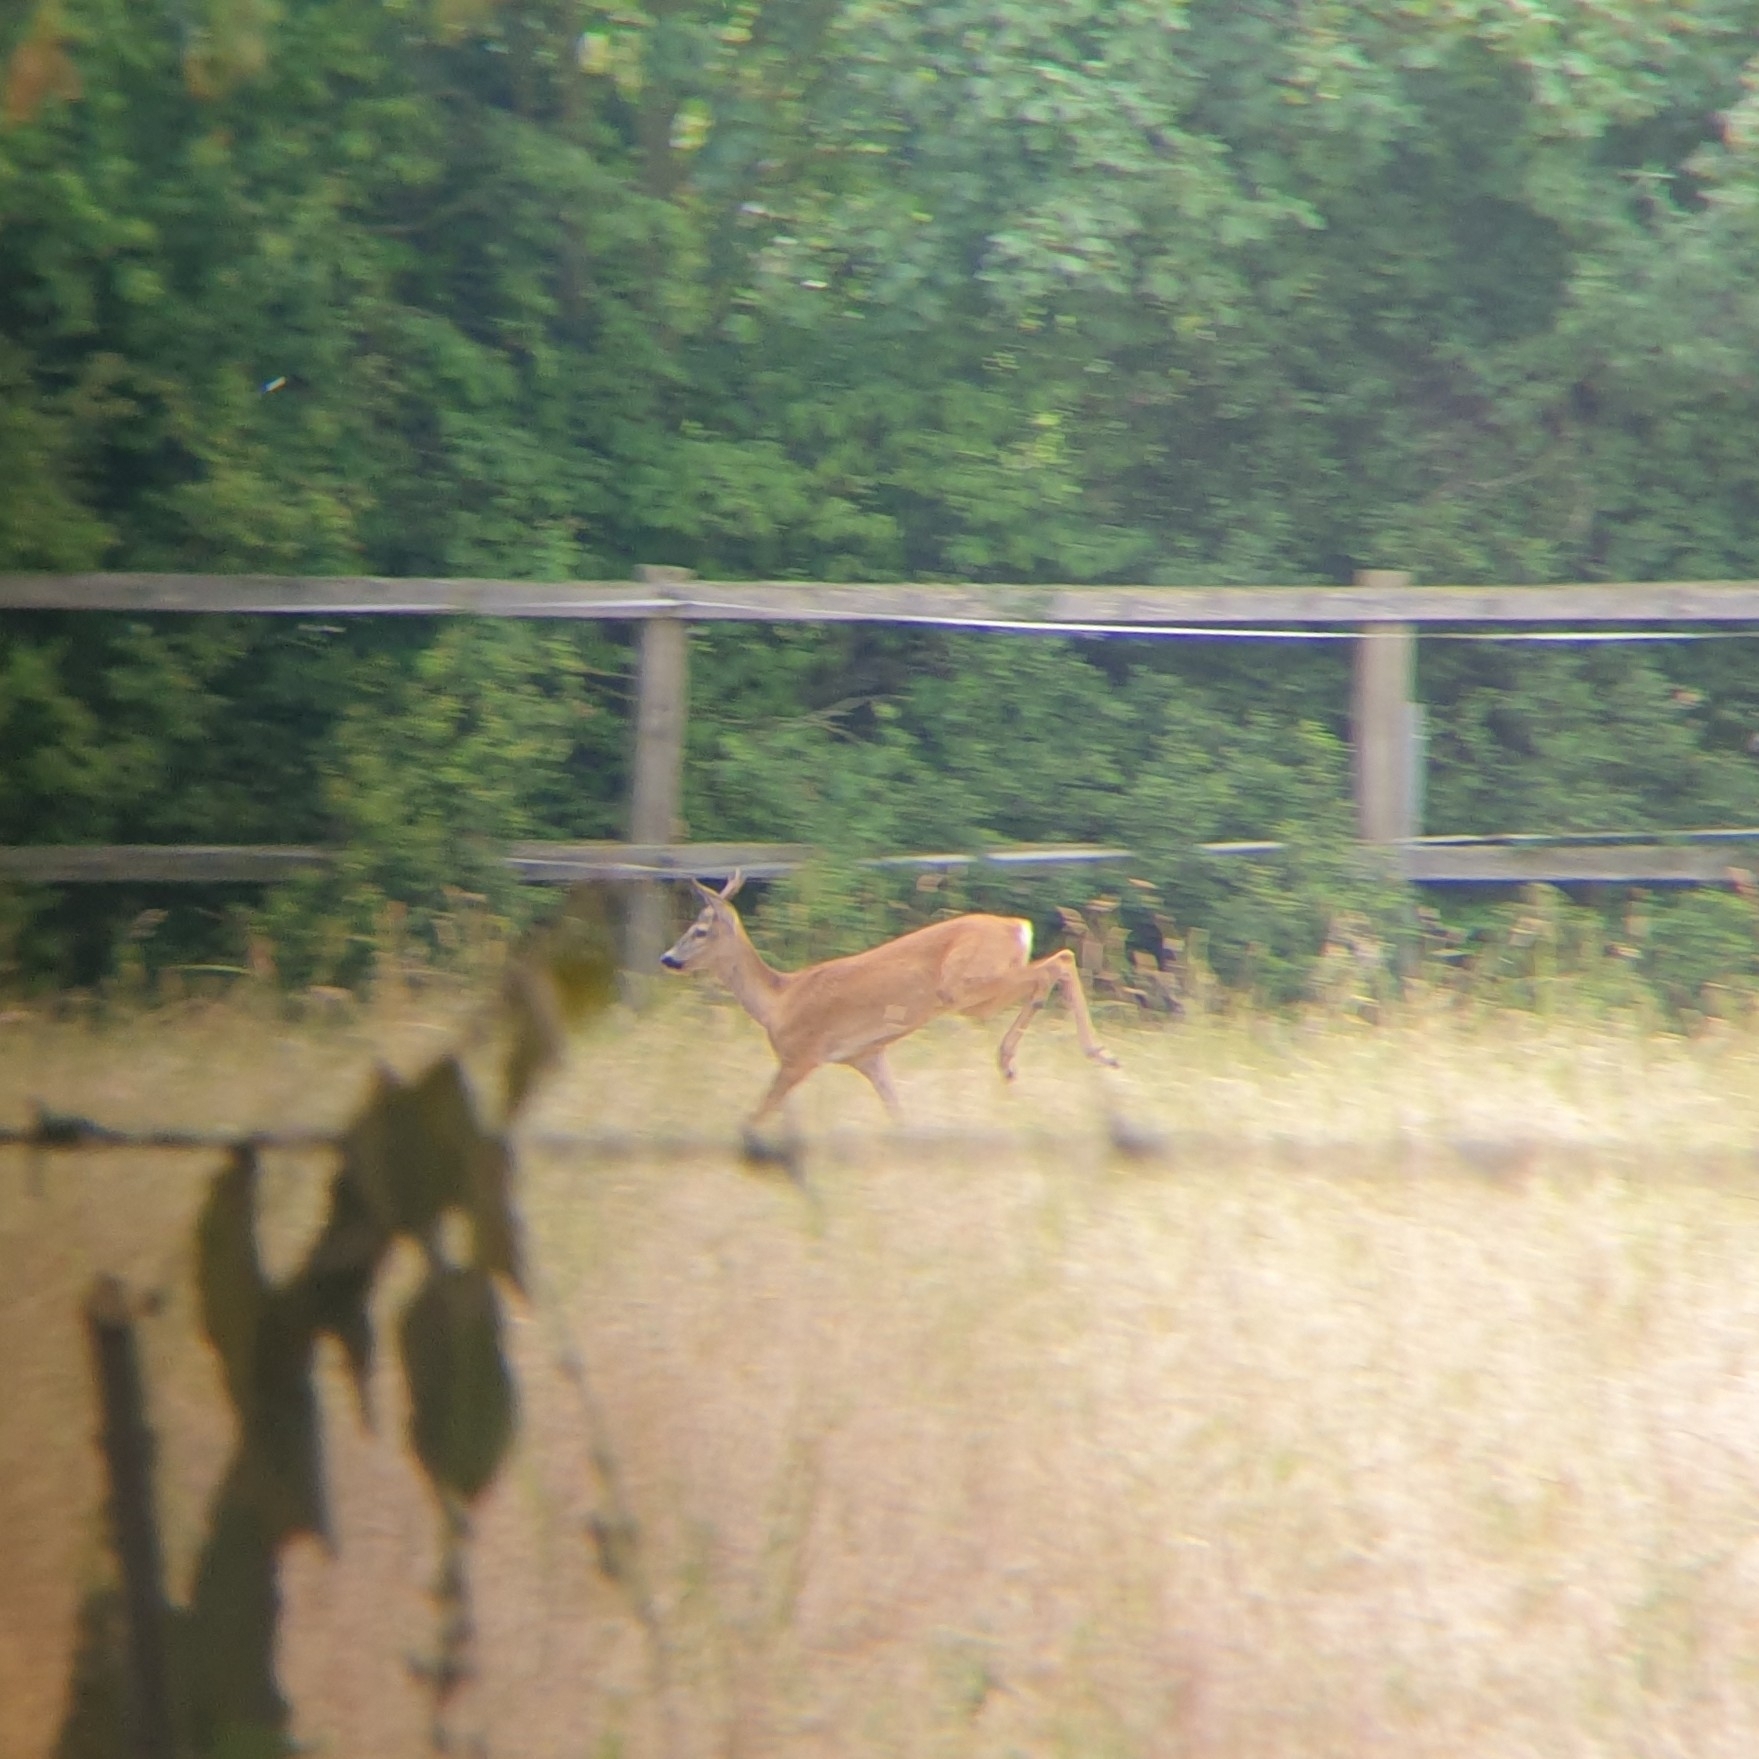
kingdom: Animalia
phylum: Chordata
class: Mammalia
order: Artiodactyla
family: Cervidae
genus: Capreolus
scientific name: Capreolus capreolus
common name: Western roe deer
